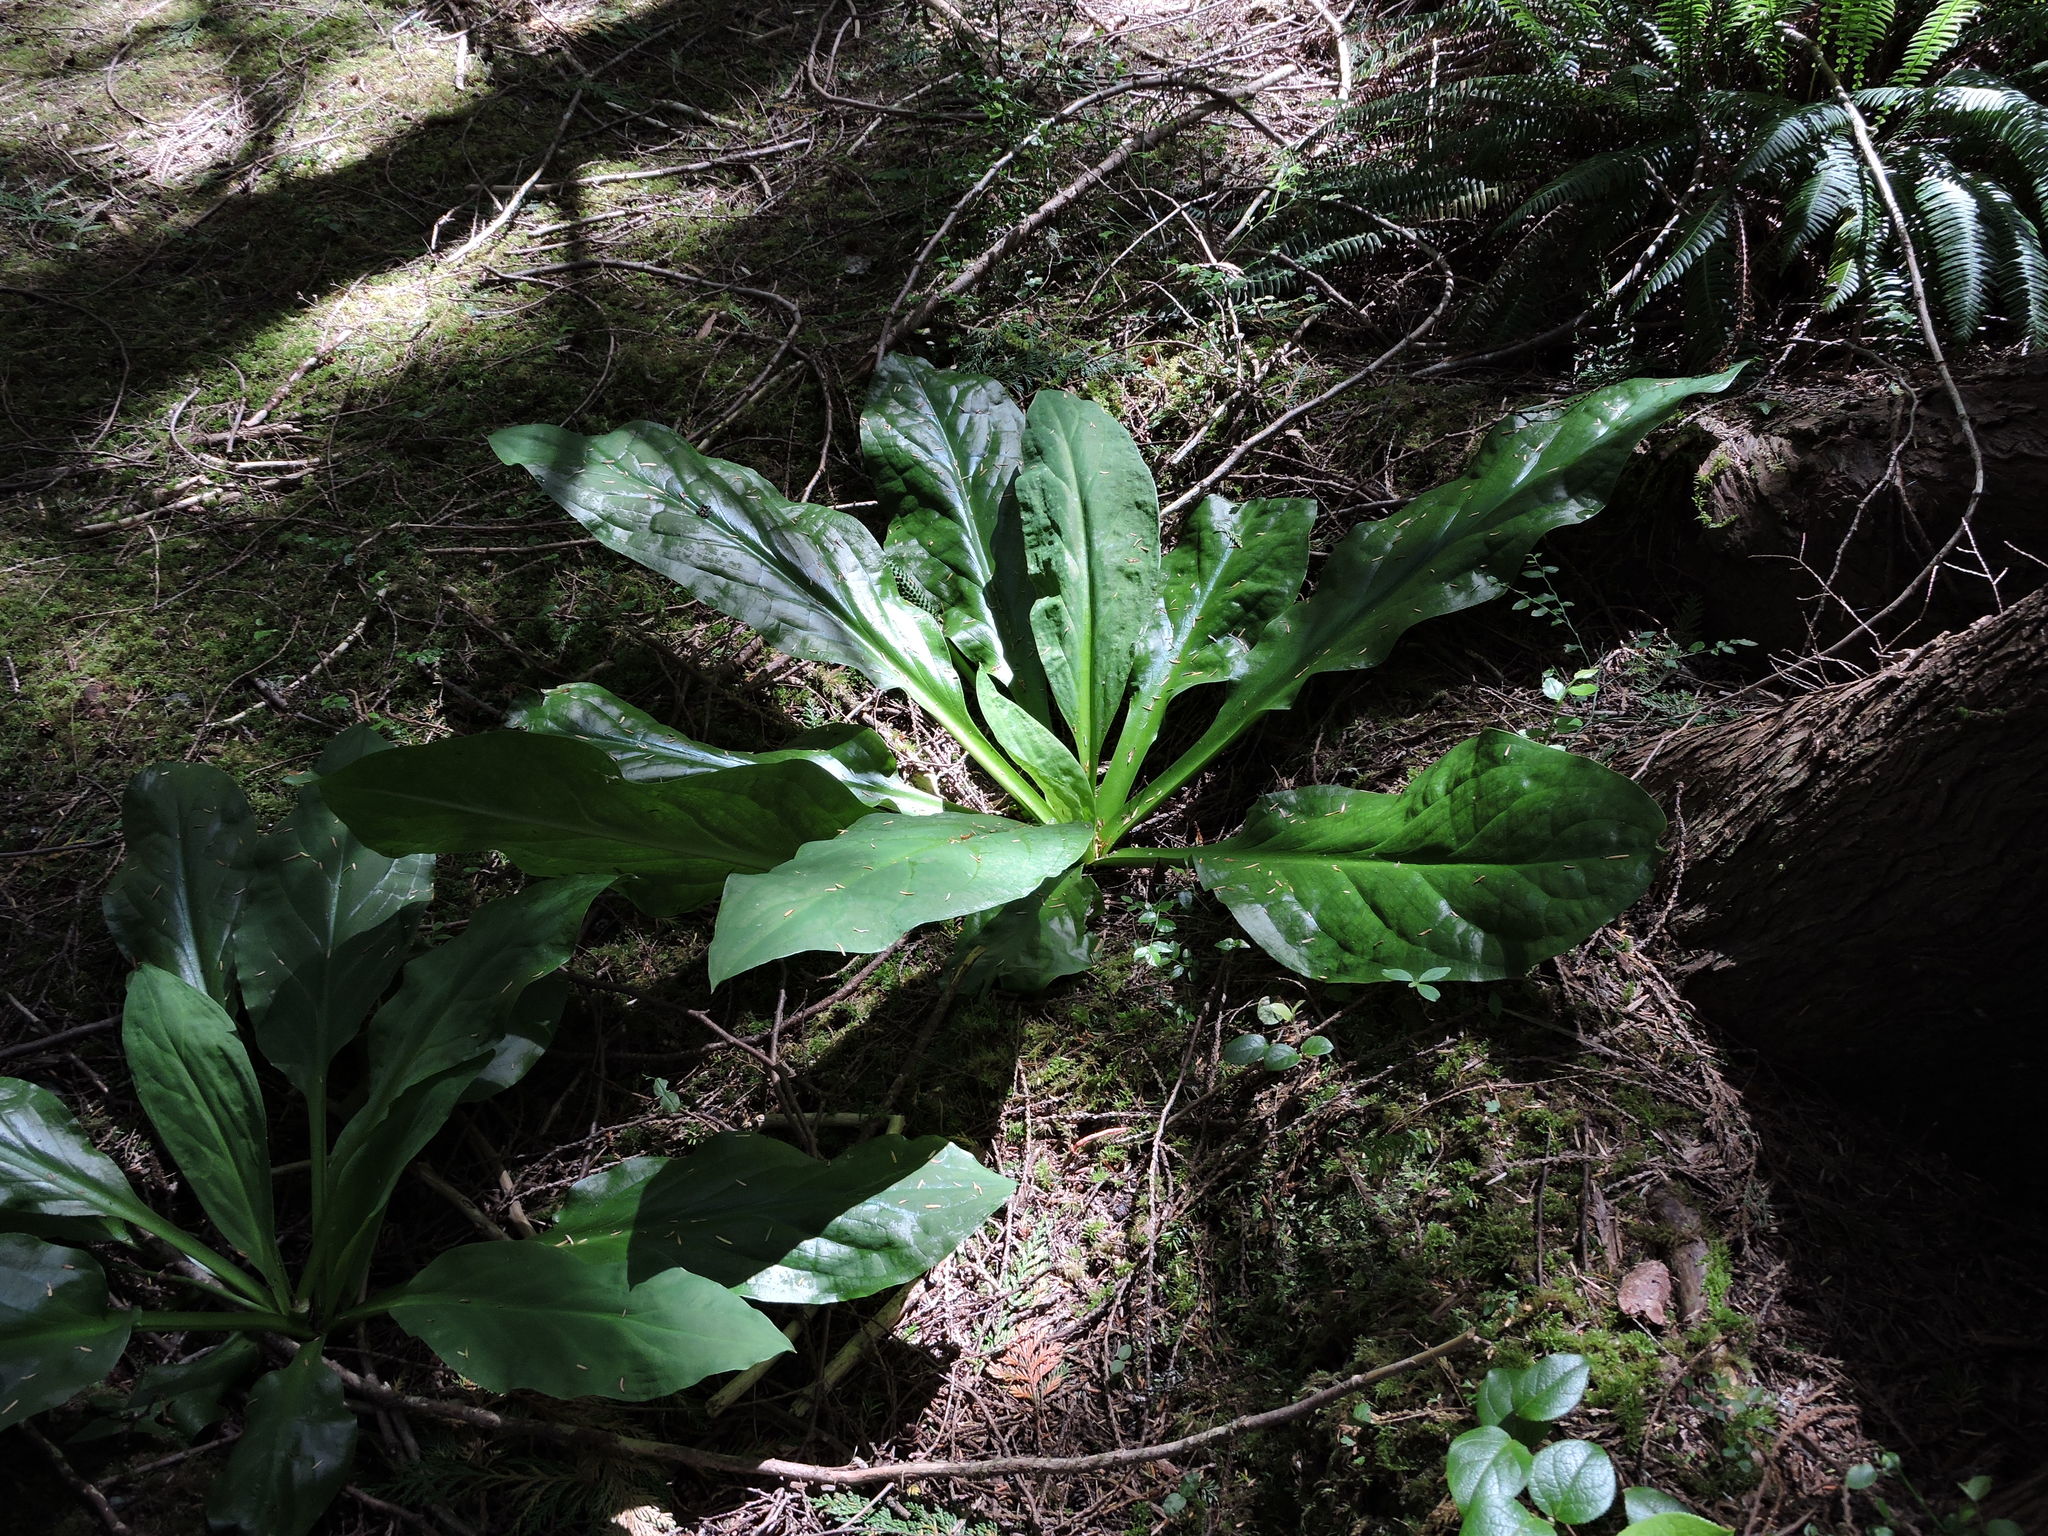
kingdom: Plantae
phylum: Tracheophyta
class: Liliopsida
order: Alismatales
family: Araceae
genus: Lysichiton
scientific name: Lysichiton americanus
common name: American skunk cabbage
